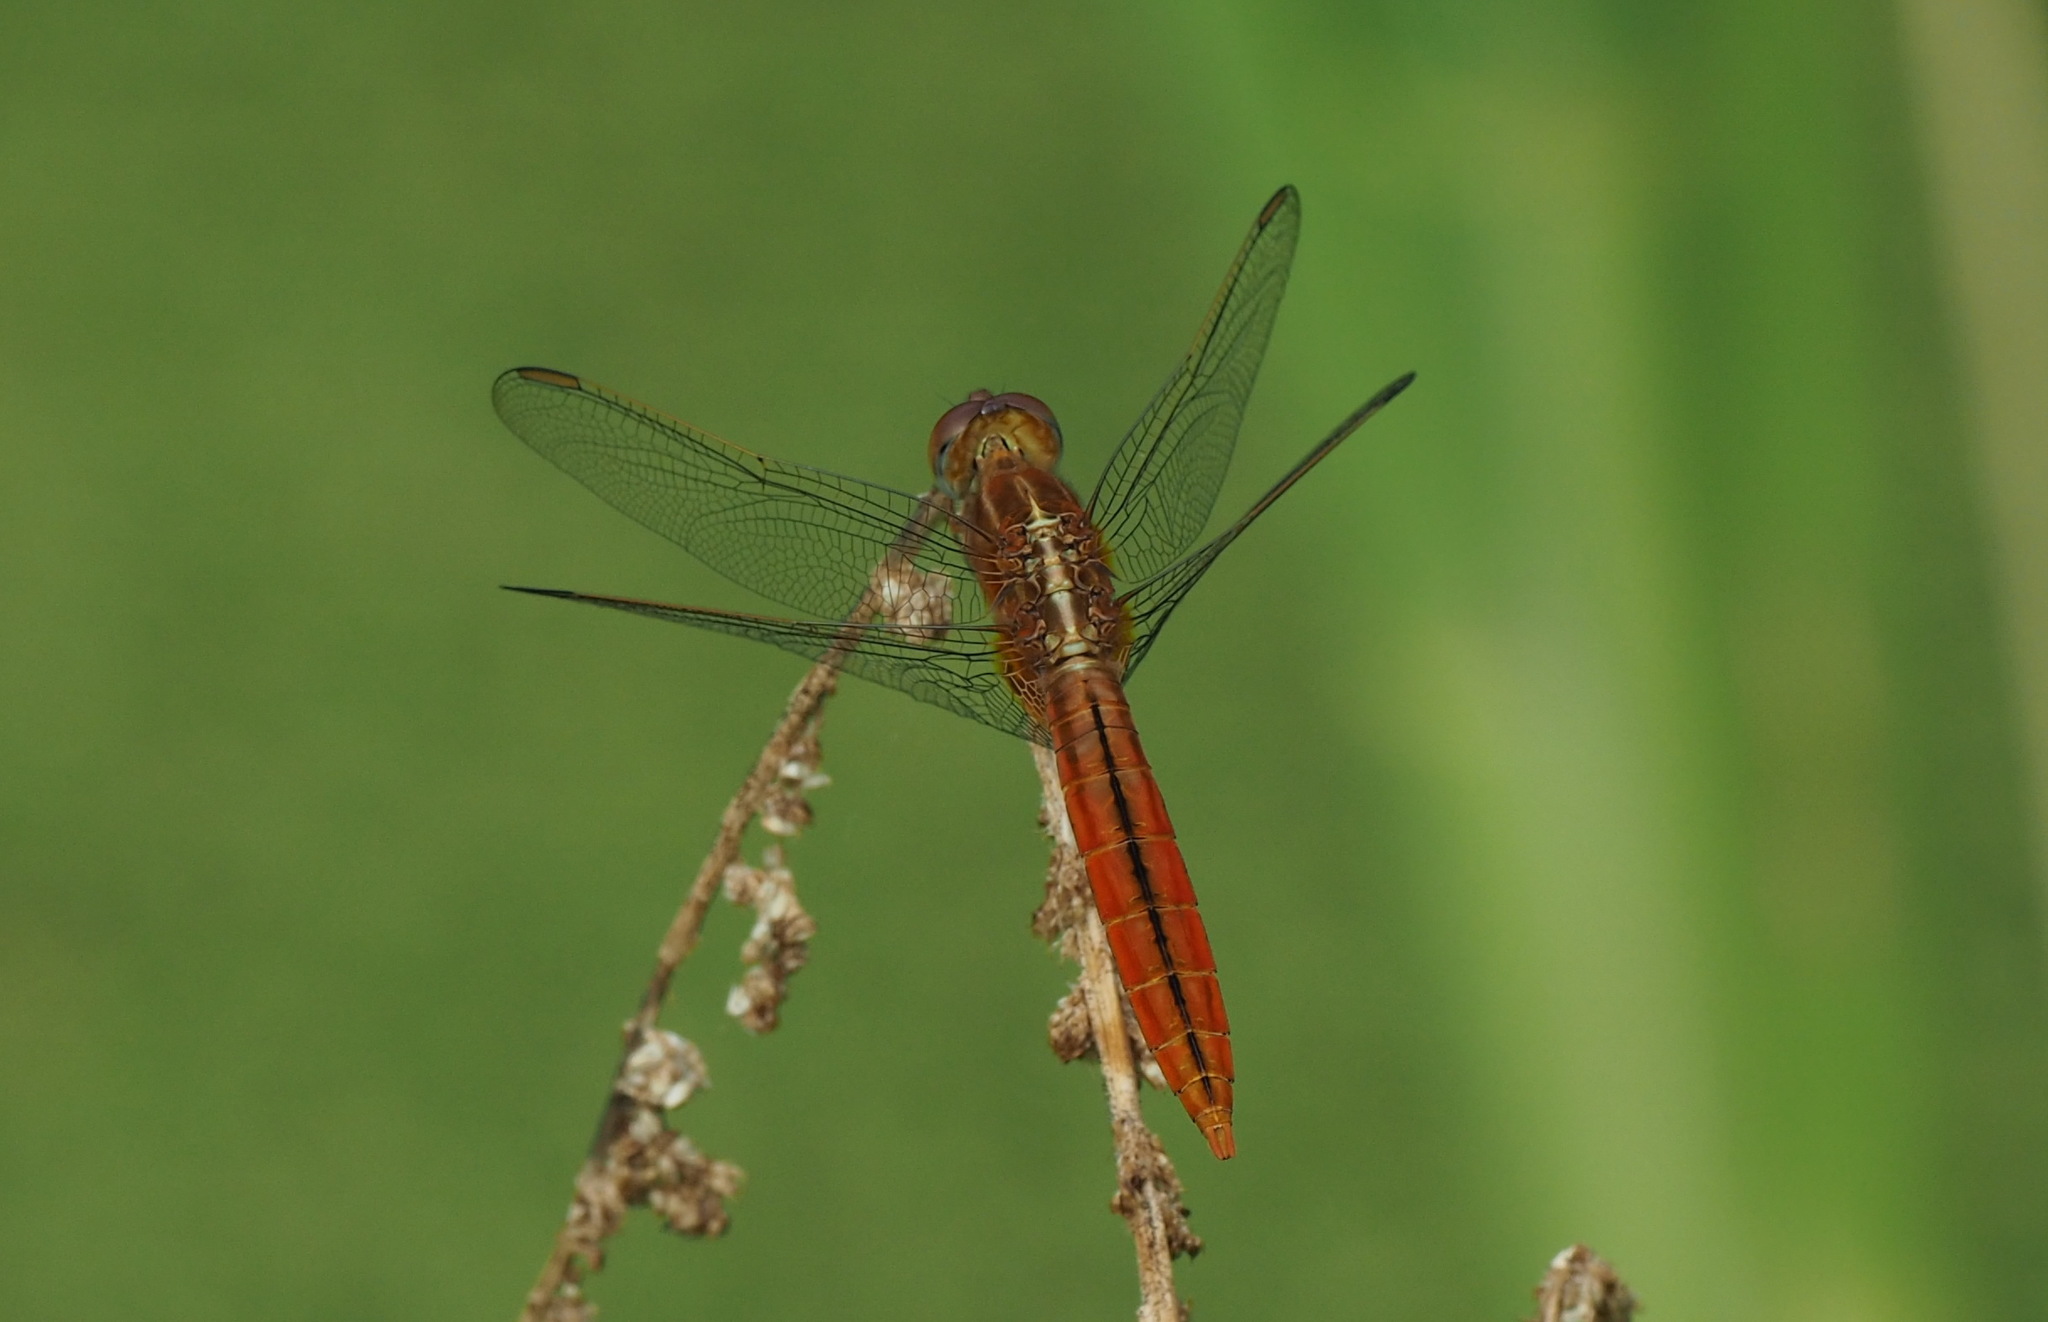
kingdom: Animalia
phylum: Arthropoda
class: Insecta
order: Odonata
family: Libellulidae
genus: Crocothemis
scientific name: Crocothemis servilia
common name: Scarlet skimmer
